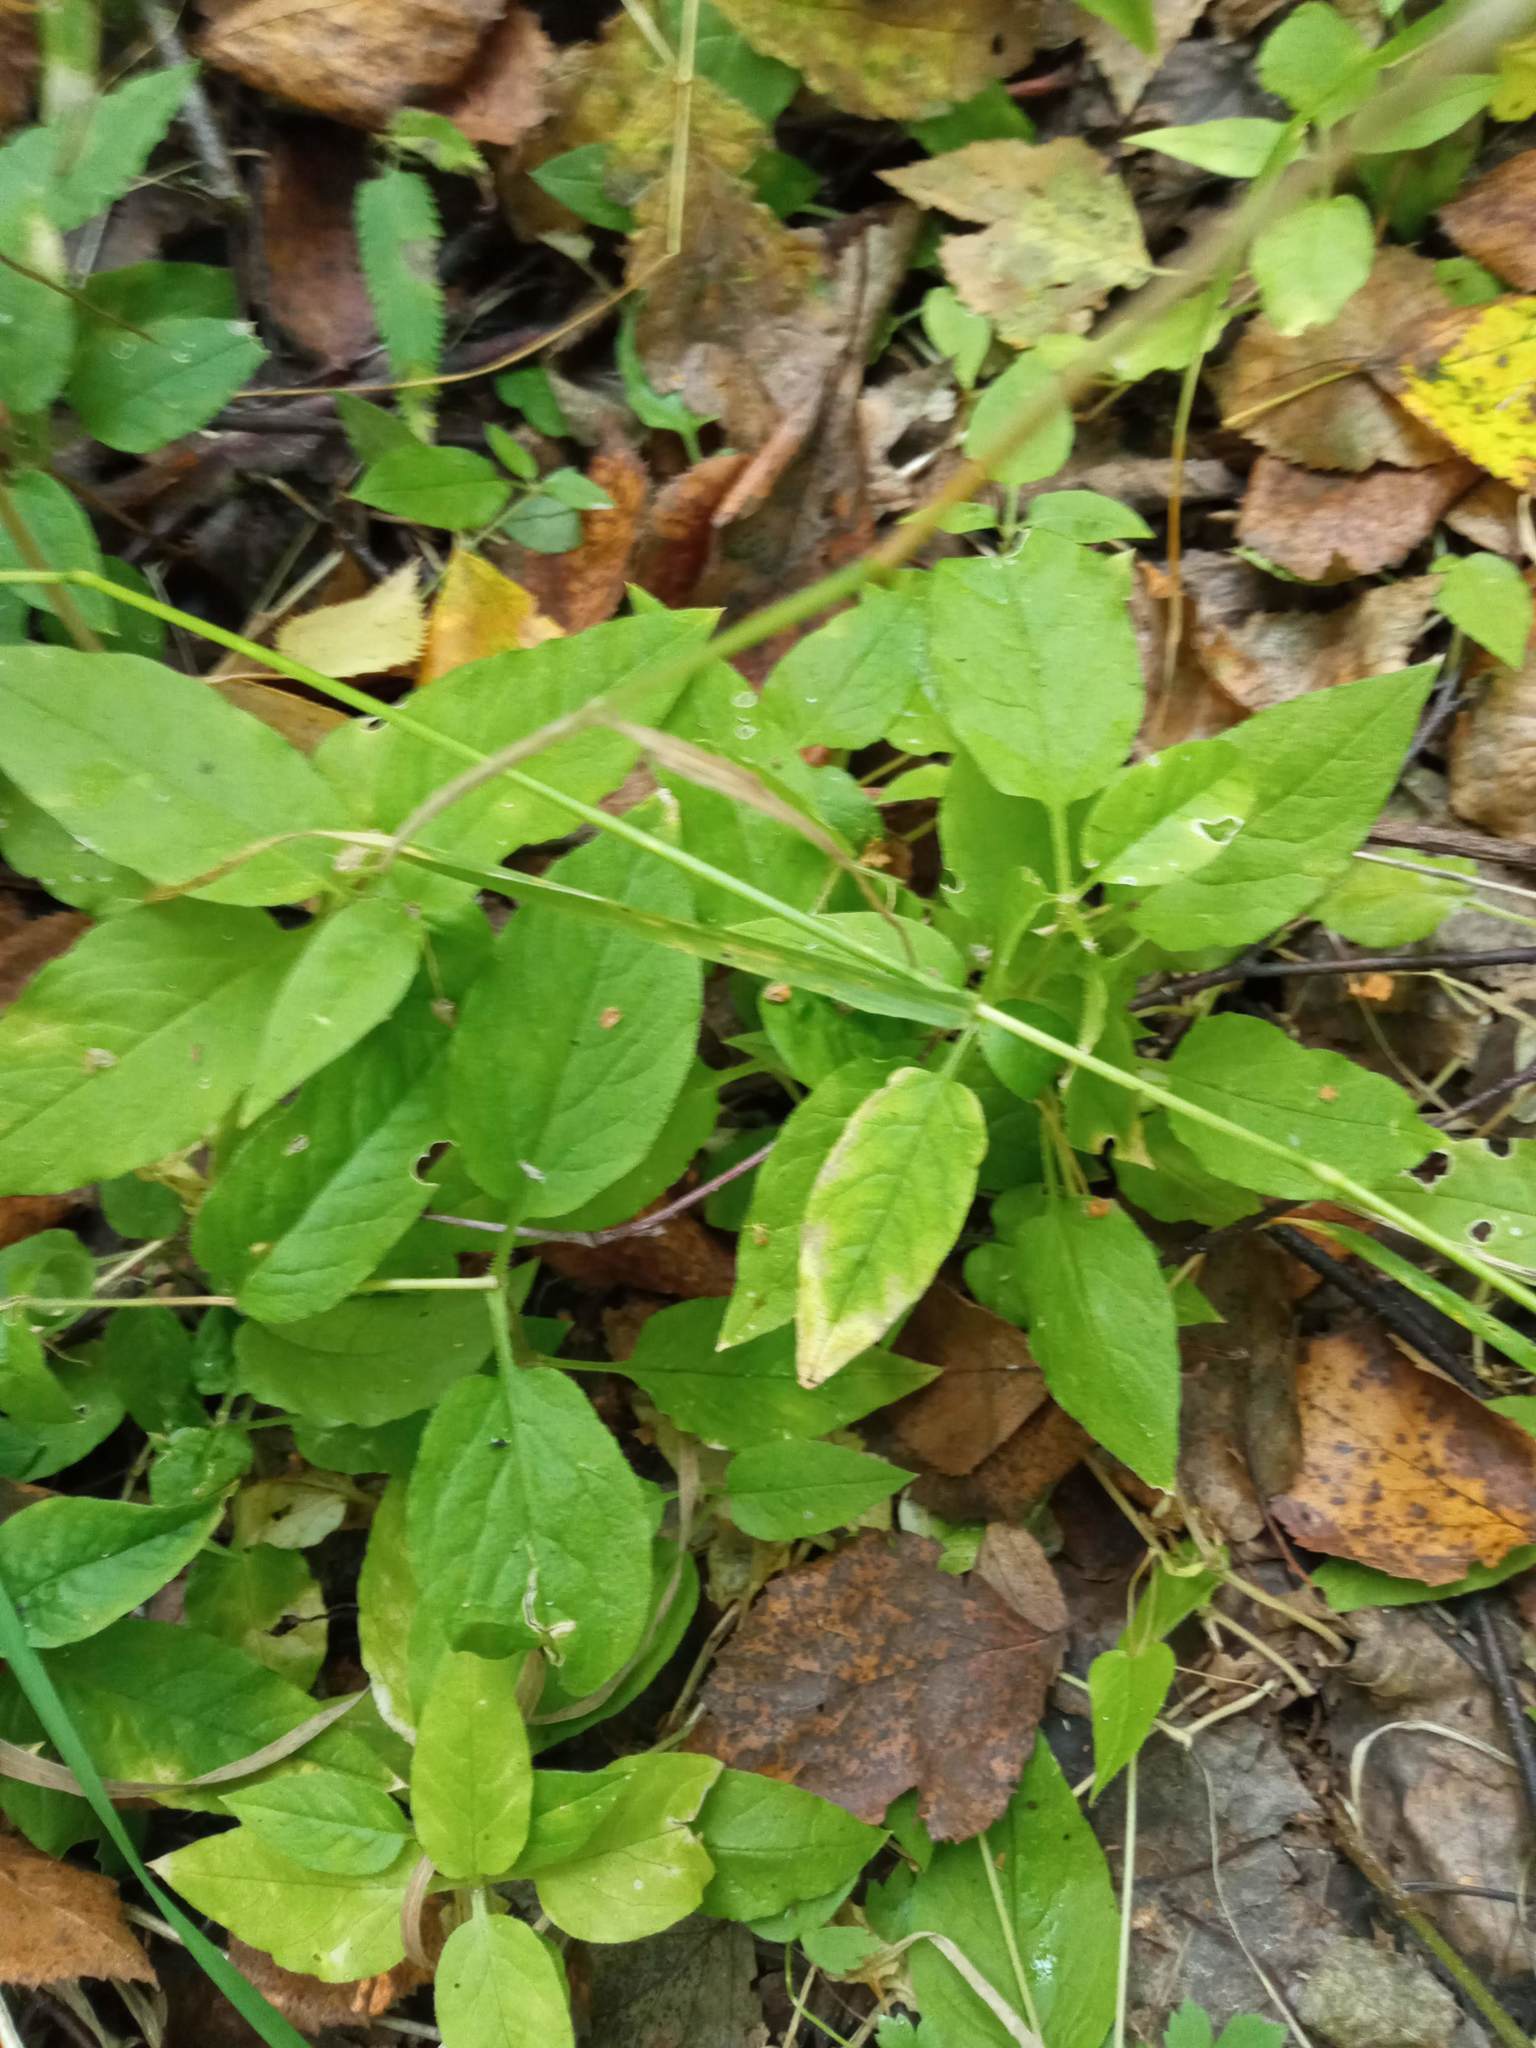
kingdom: Plantae
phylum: Tracheophyta
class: Magnoliopsida
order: Caryophyllales
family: Caryophyllaceae
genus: Stellaria
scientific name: Stellaria bungeana
